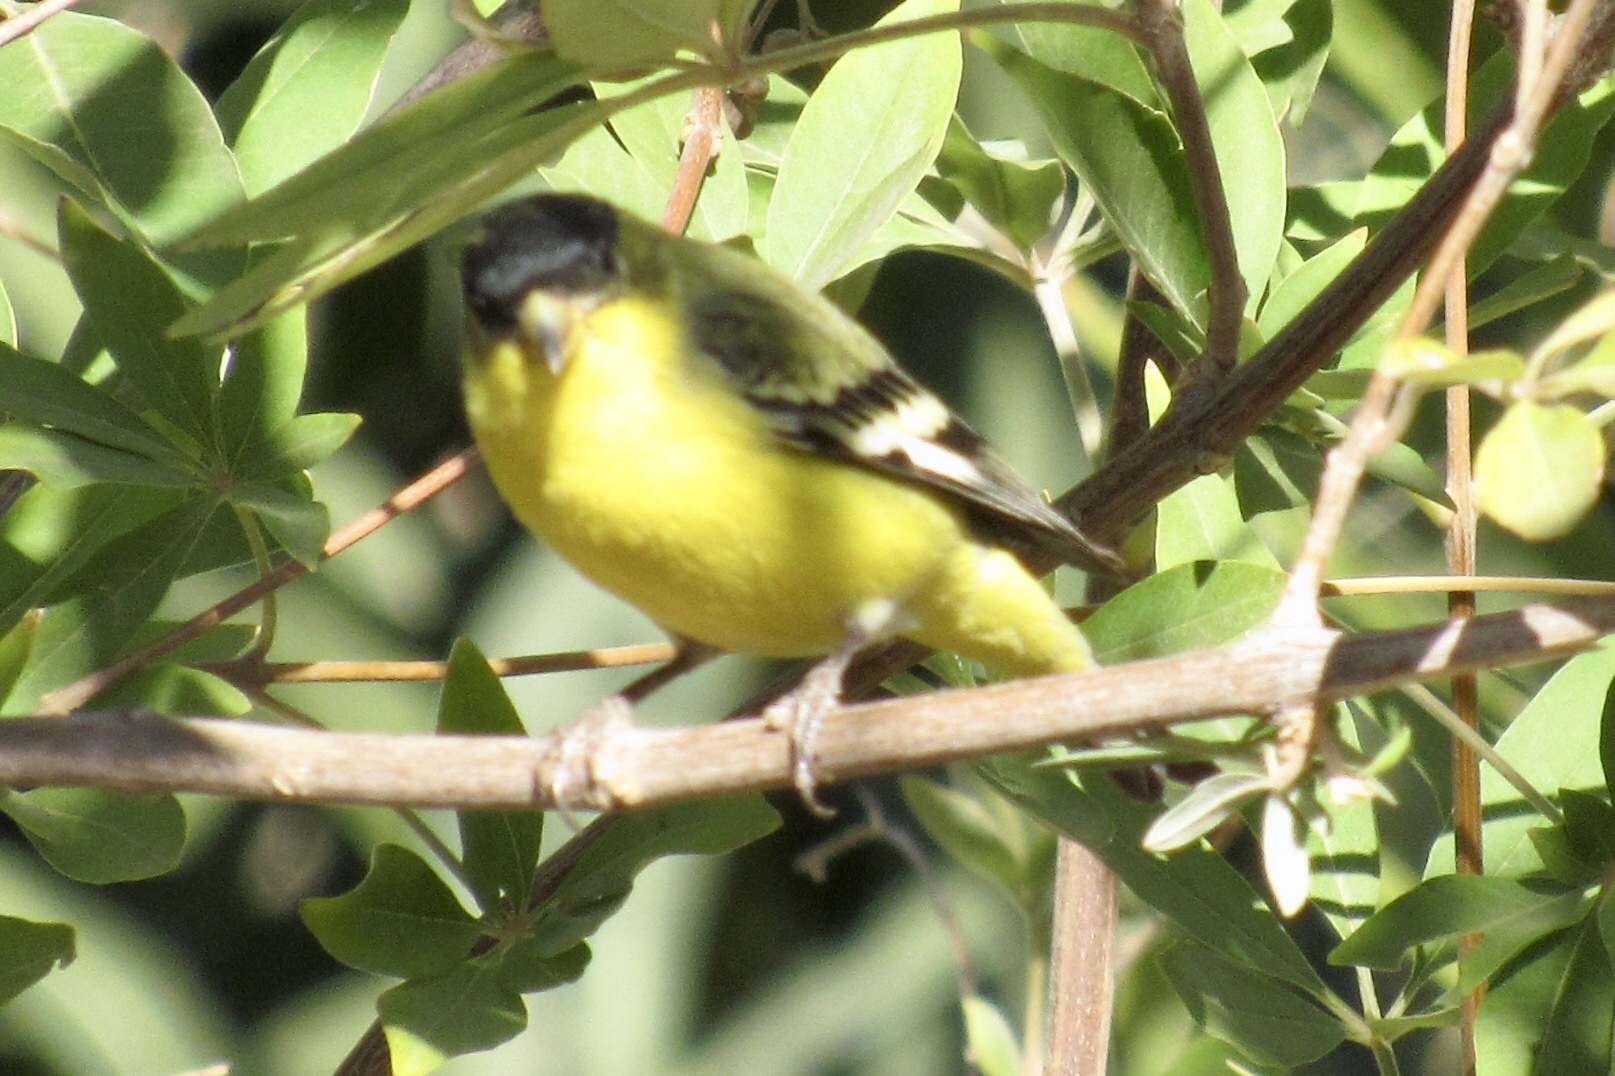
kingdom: Animalia
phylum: Chordata
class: Aves
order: Passeriformes
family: Fringillidae
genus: Spinus
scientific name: Spinus psaltria
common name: Lesser goldfinch
